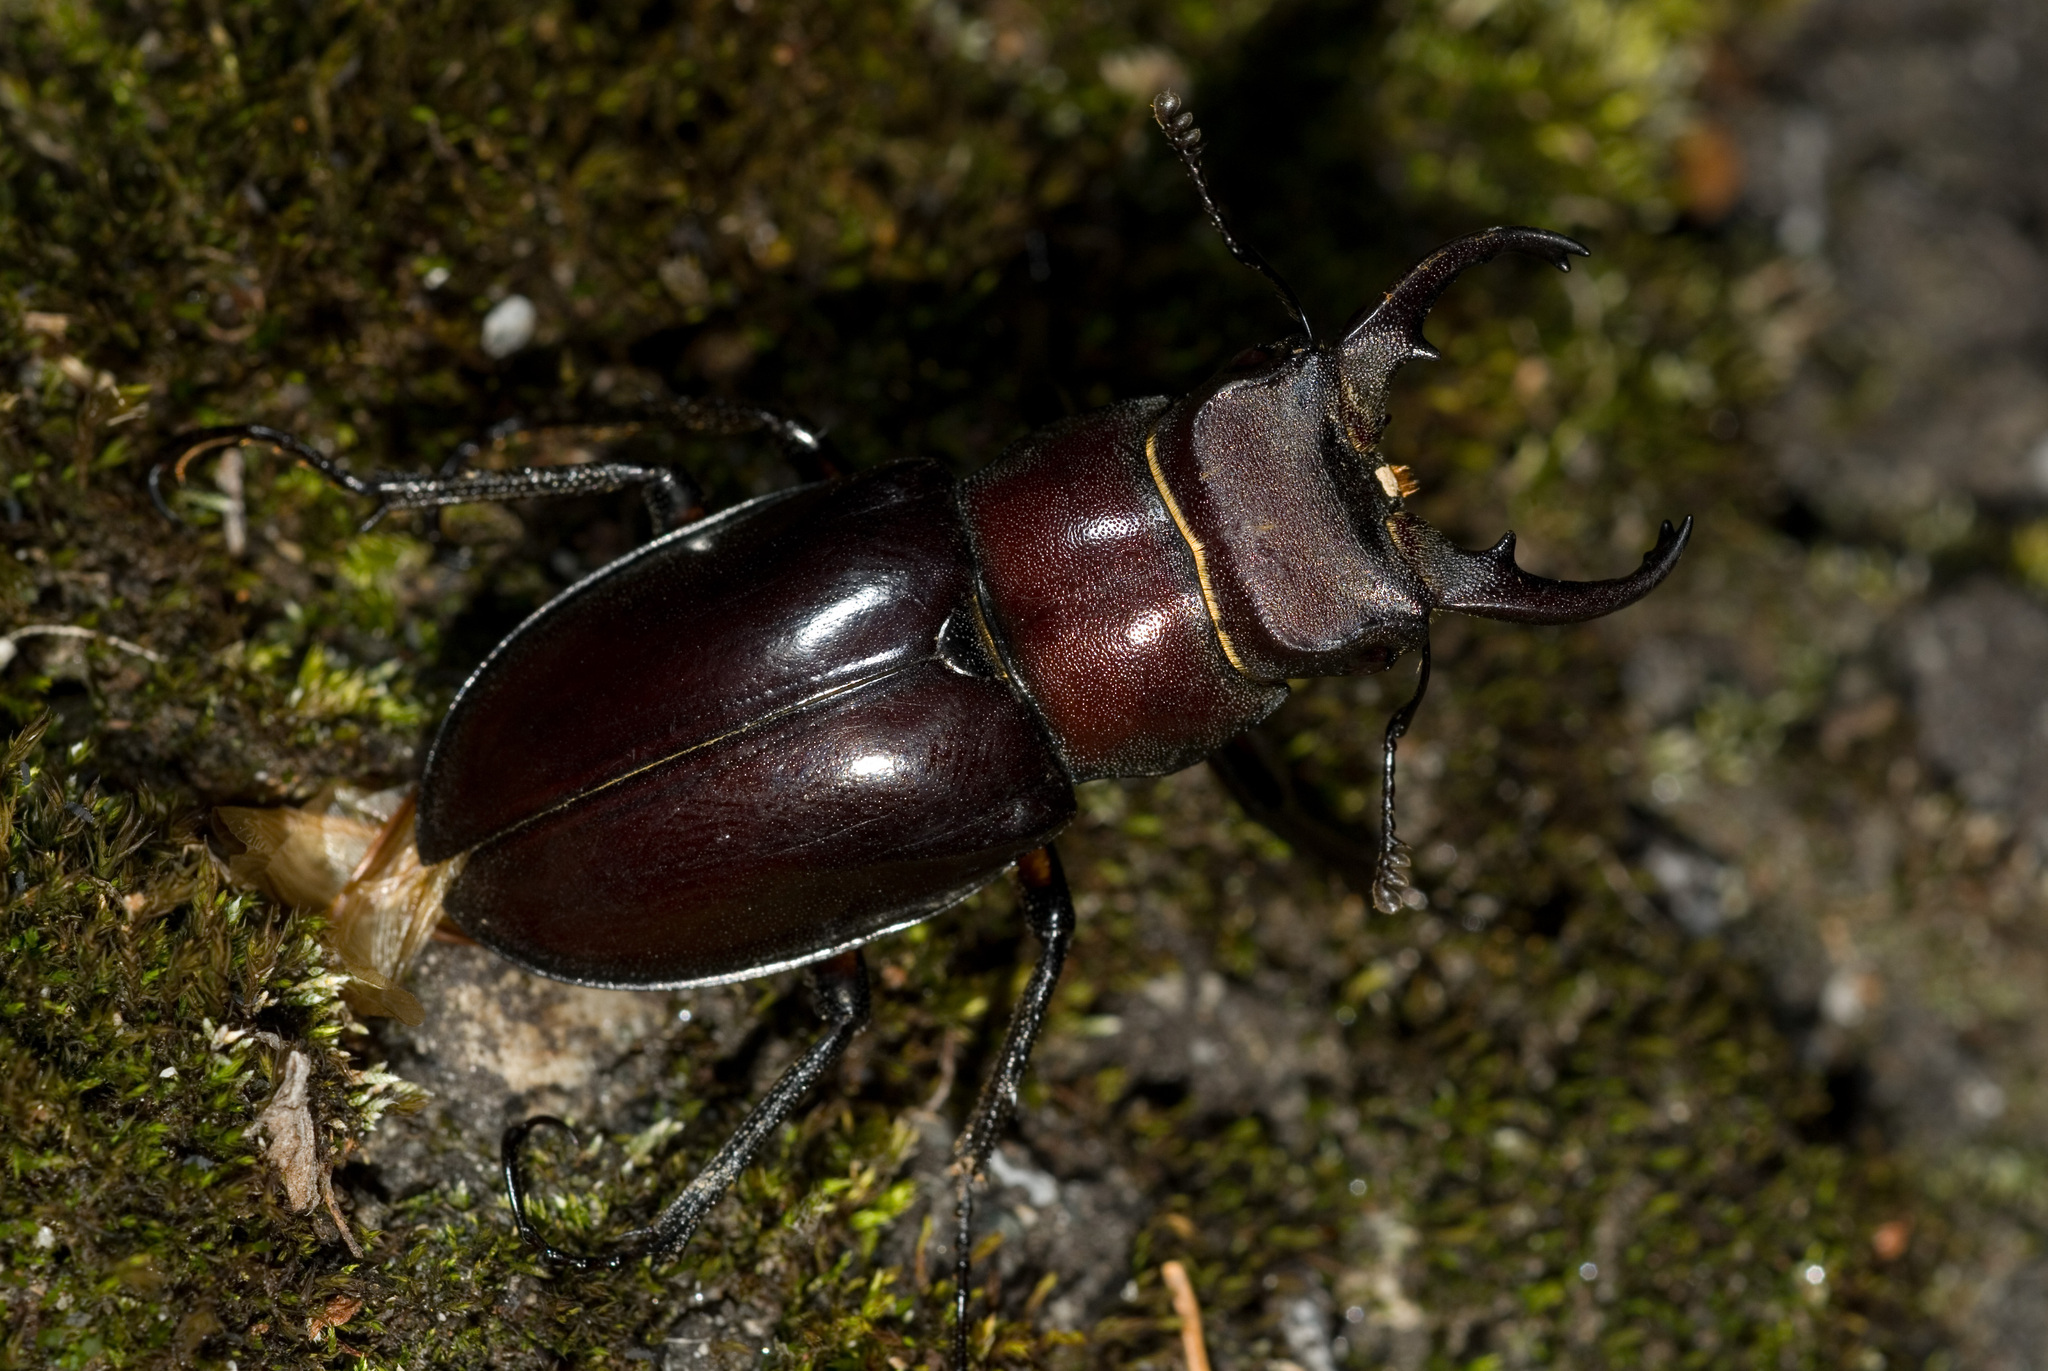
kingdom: Animalia
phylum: Arthropoda
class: Insecta
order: Coleoptera
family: Lucanidae
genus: Lucanus
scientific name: Lucanus kanoi
